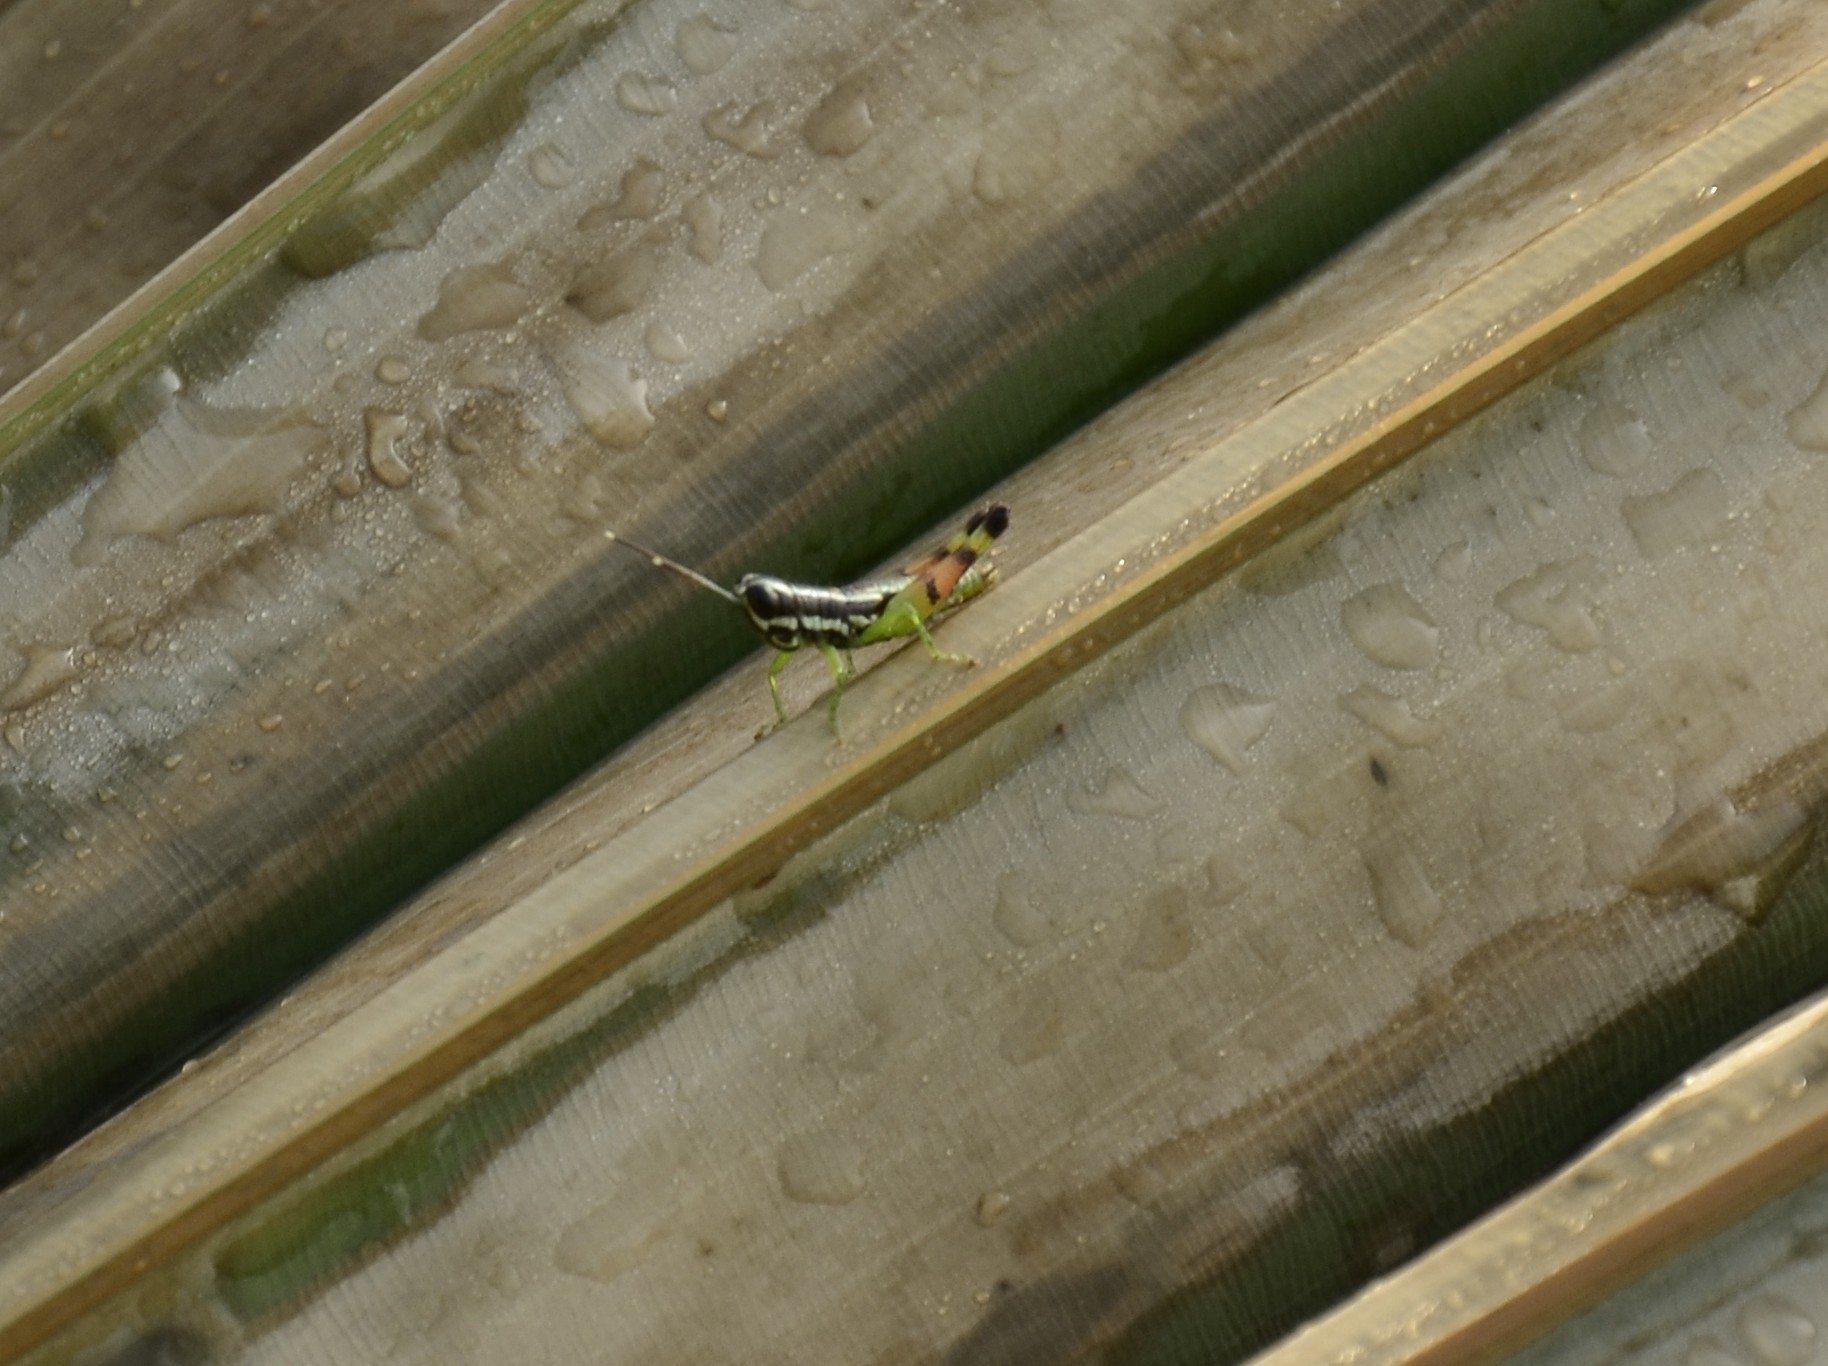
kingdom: Animalia
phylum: Arthropoda
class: Insecta
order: Orthoptera
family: Acrididae
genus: Chitaura
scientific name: Chitaura indica
